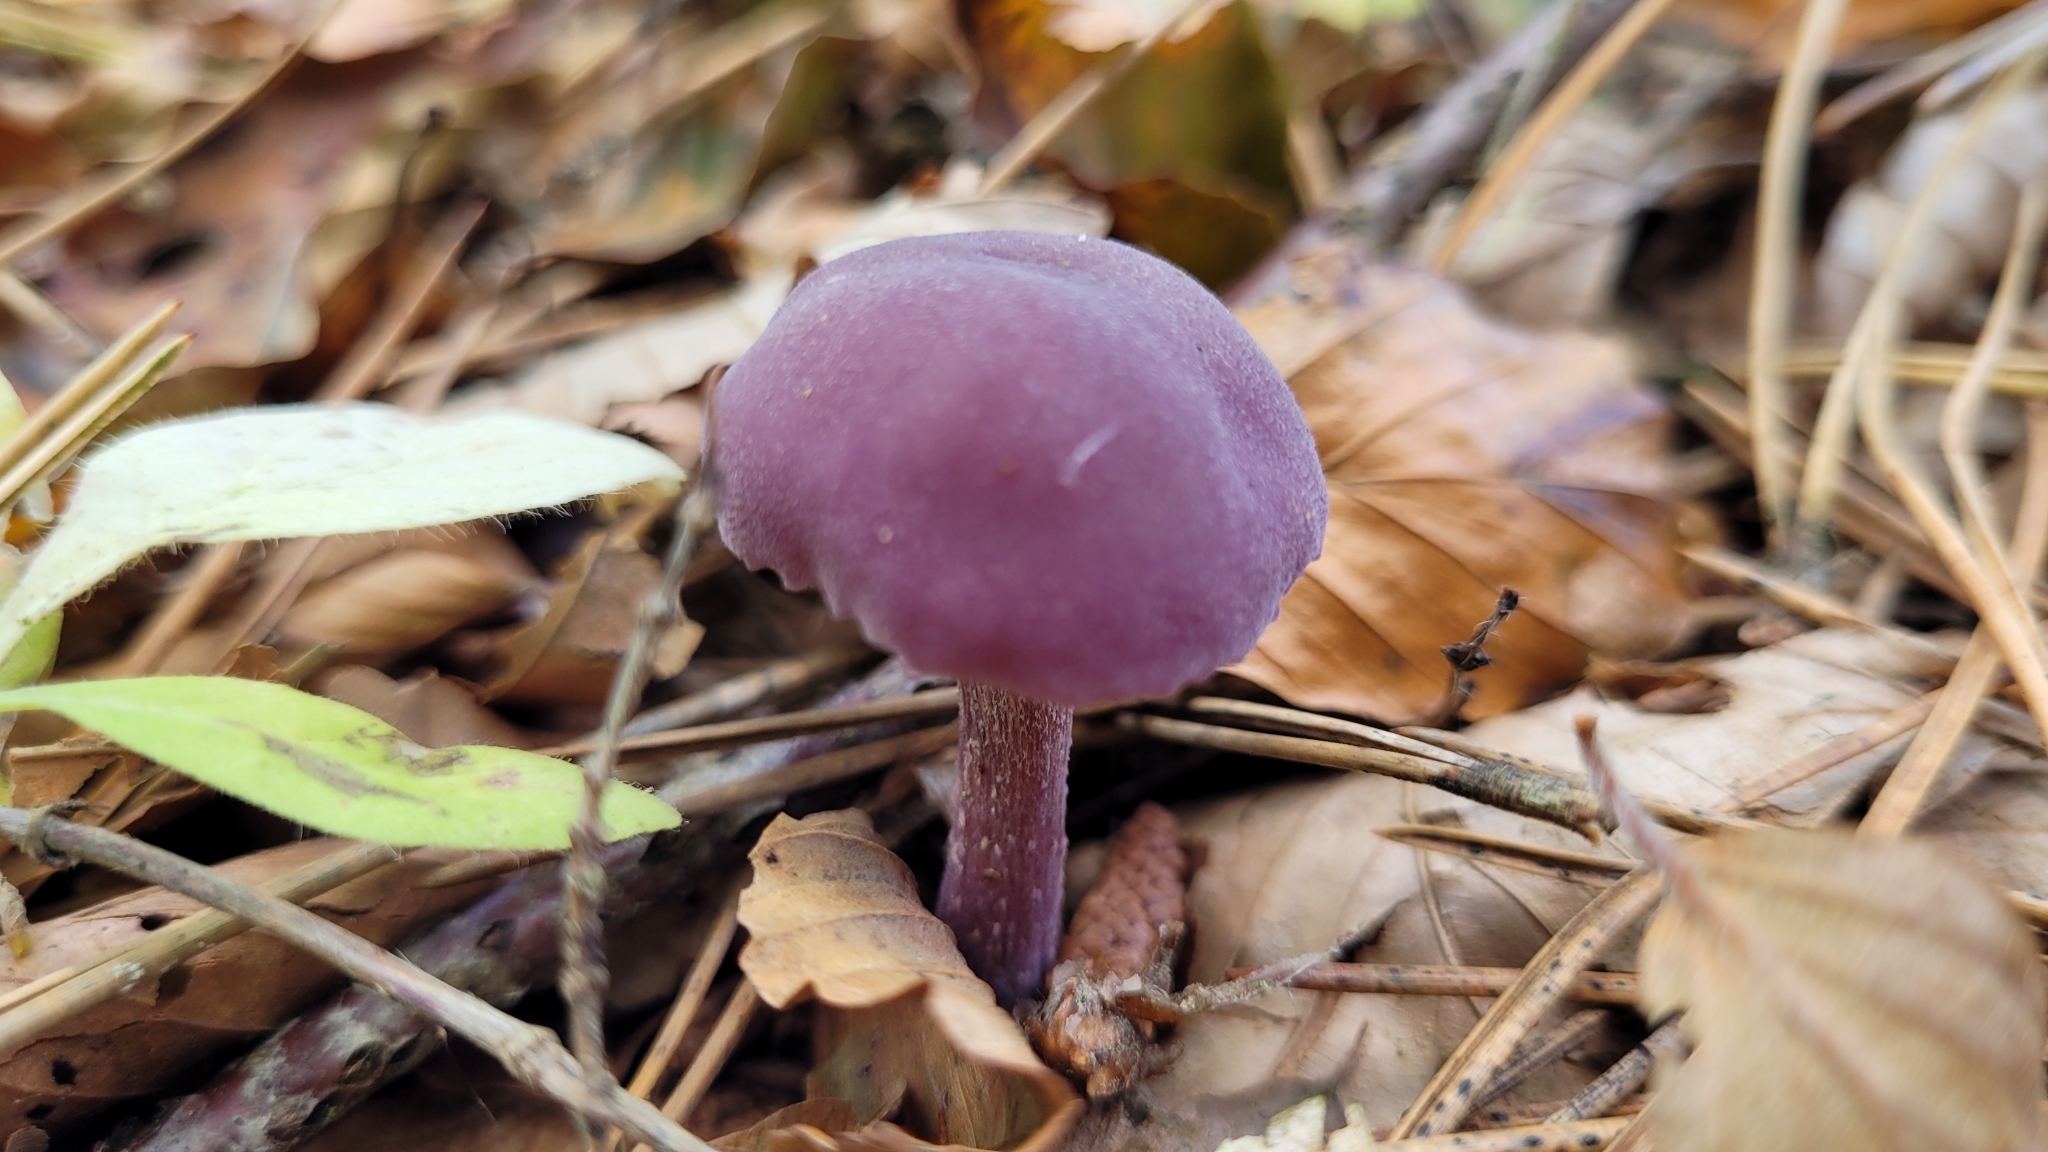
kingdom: Fungi
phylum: Basidiomycota
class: Agaricomycetes
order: Agaricales
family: Hydnangiaceae
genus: Laccaria
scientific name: Laccaria amethystina
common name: Amethyst deceiver
